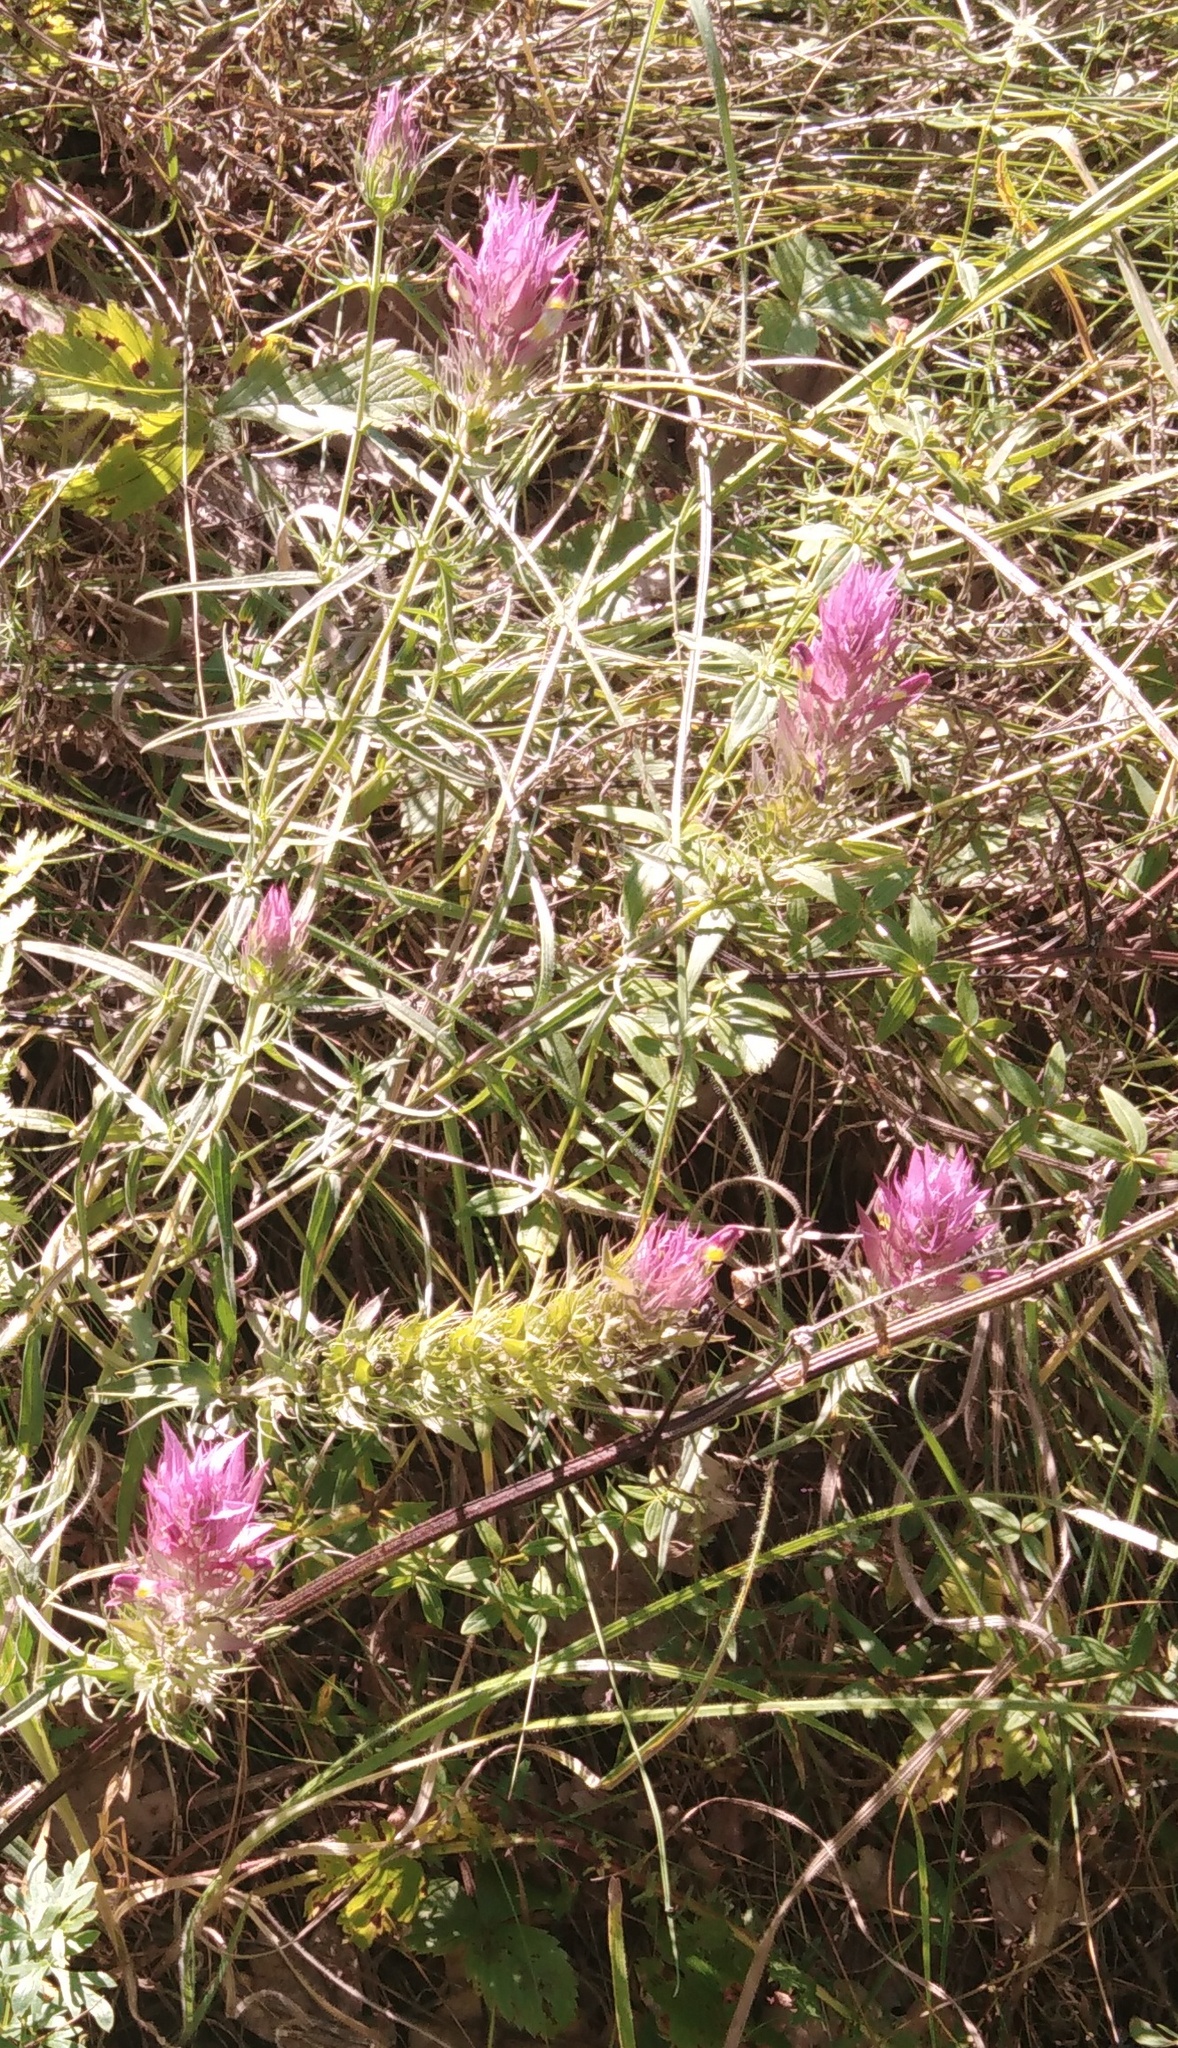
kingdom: Plantae
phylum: Tracheophyta
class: Magnoliopsida
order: Lamiales
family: Orobanchaceae
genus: Melampyrum
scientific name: Melampyrum arvense
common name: Field cow-wheat
